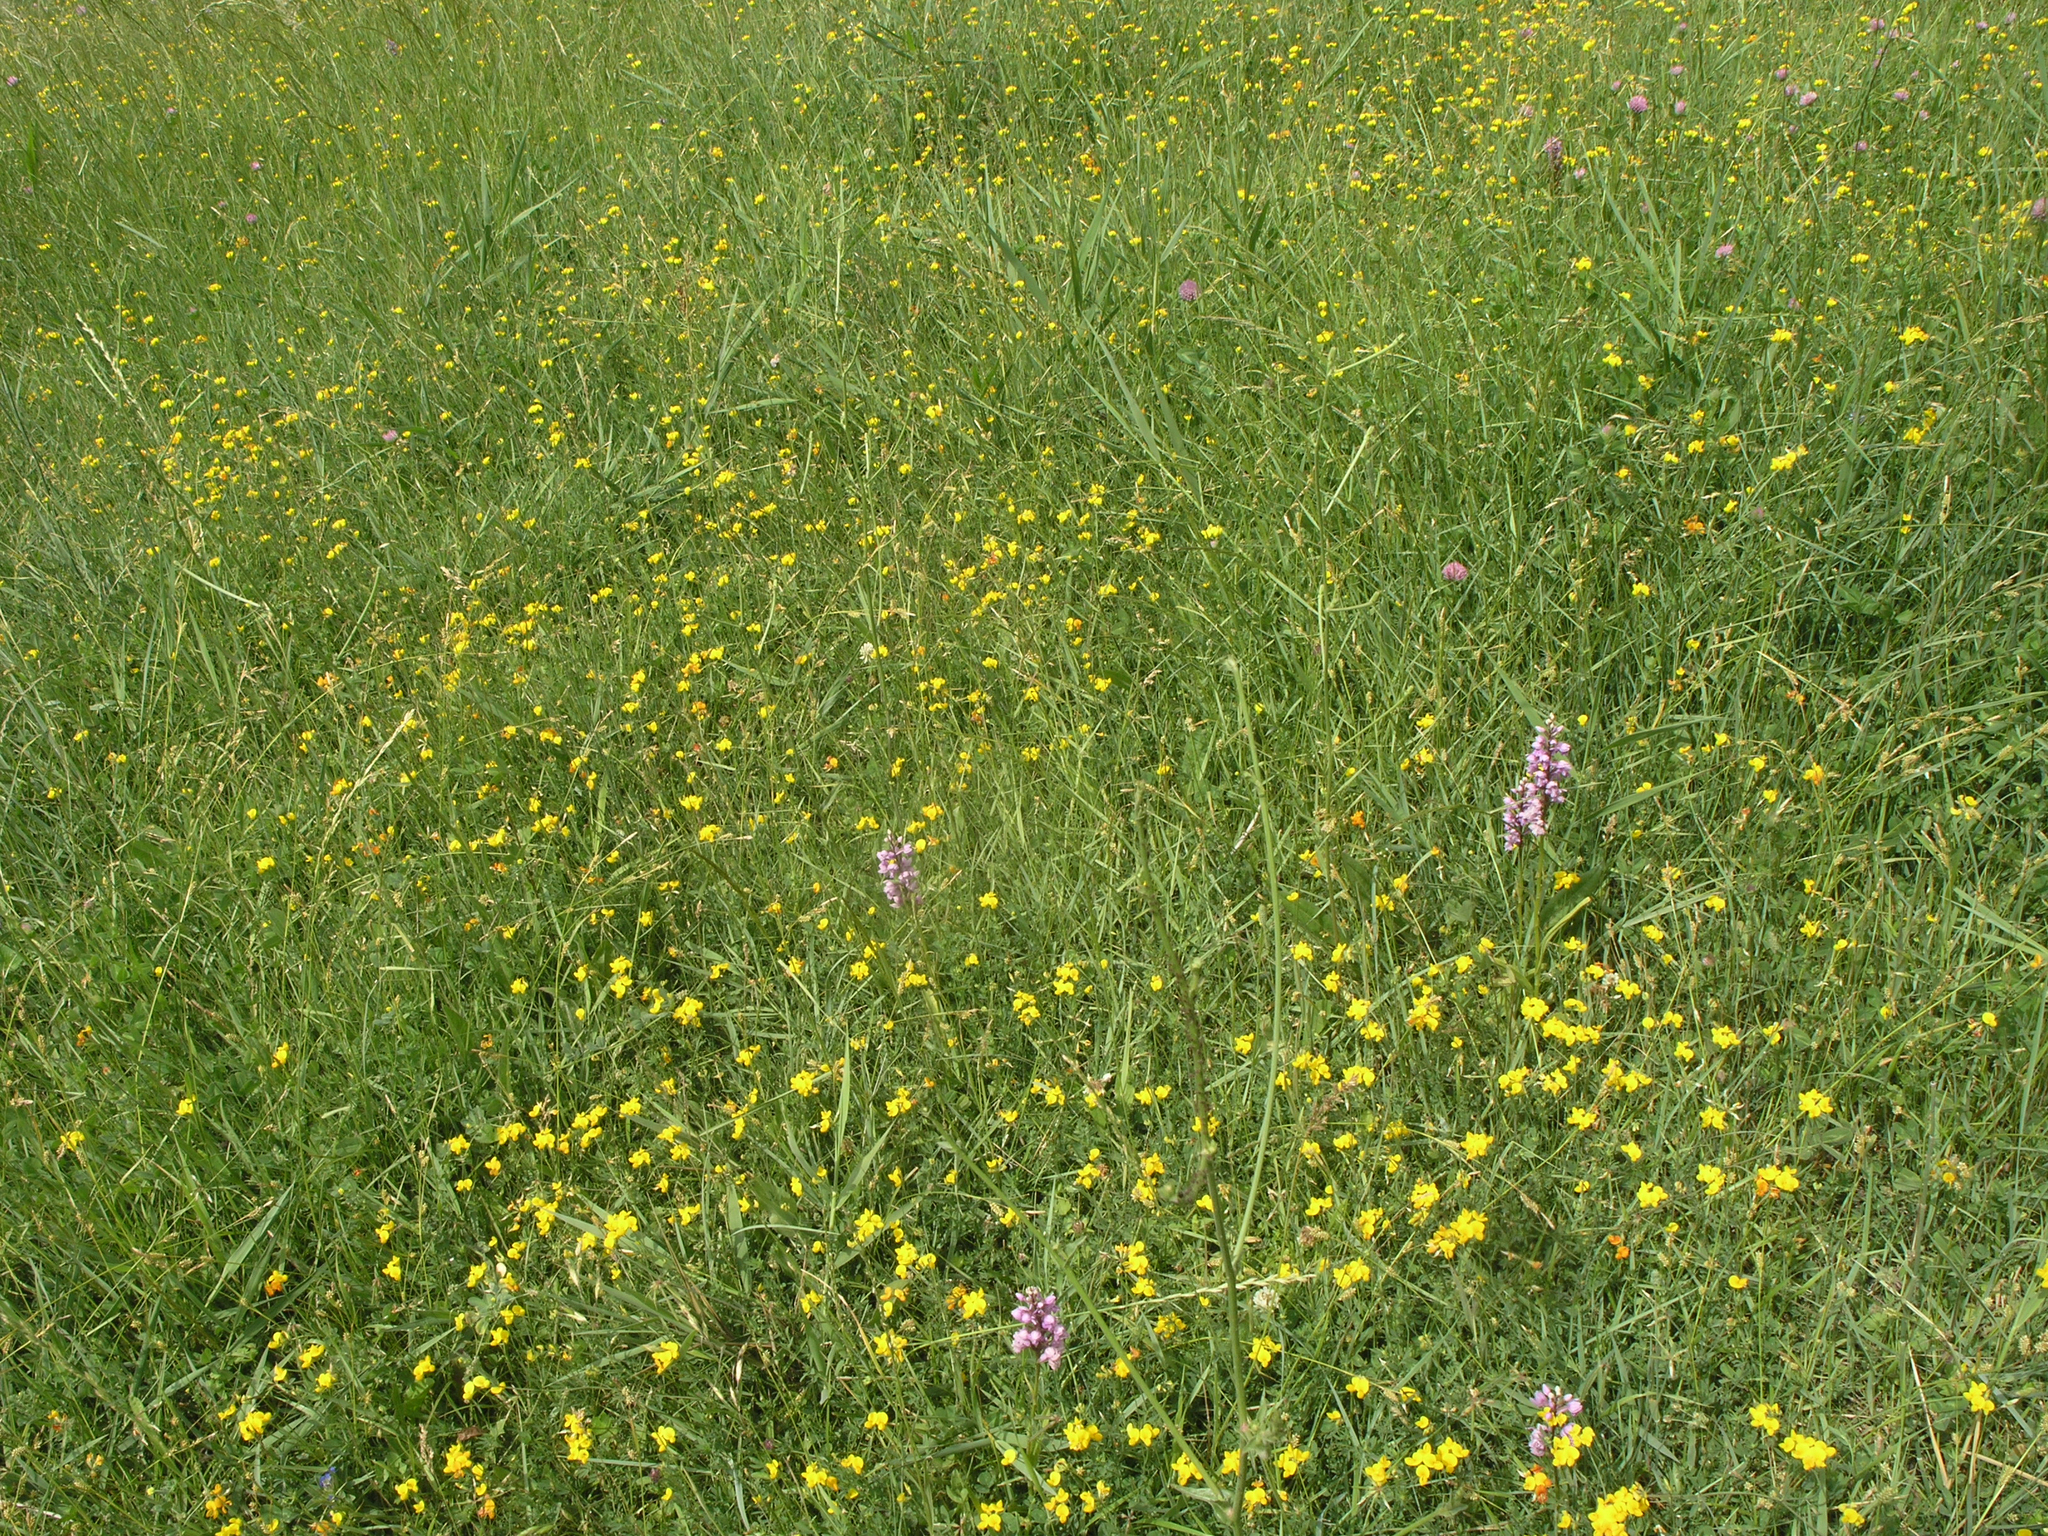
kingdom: Plantae
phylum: Tracheophyta
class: Liliopsida
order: Asparagales
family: Orchidaceae
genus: Dactylorhiza
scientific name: Dactylorhiza euxina
